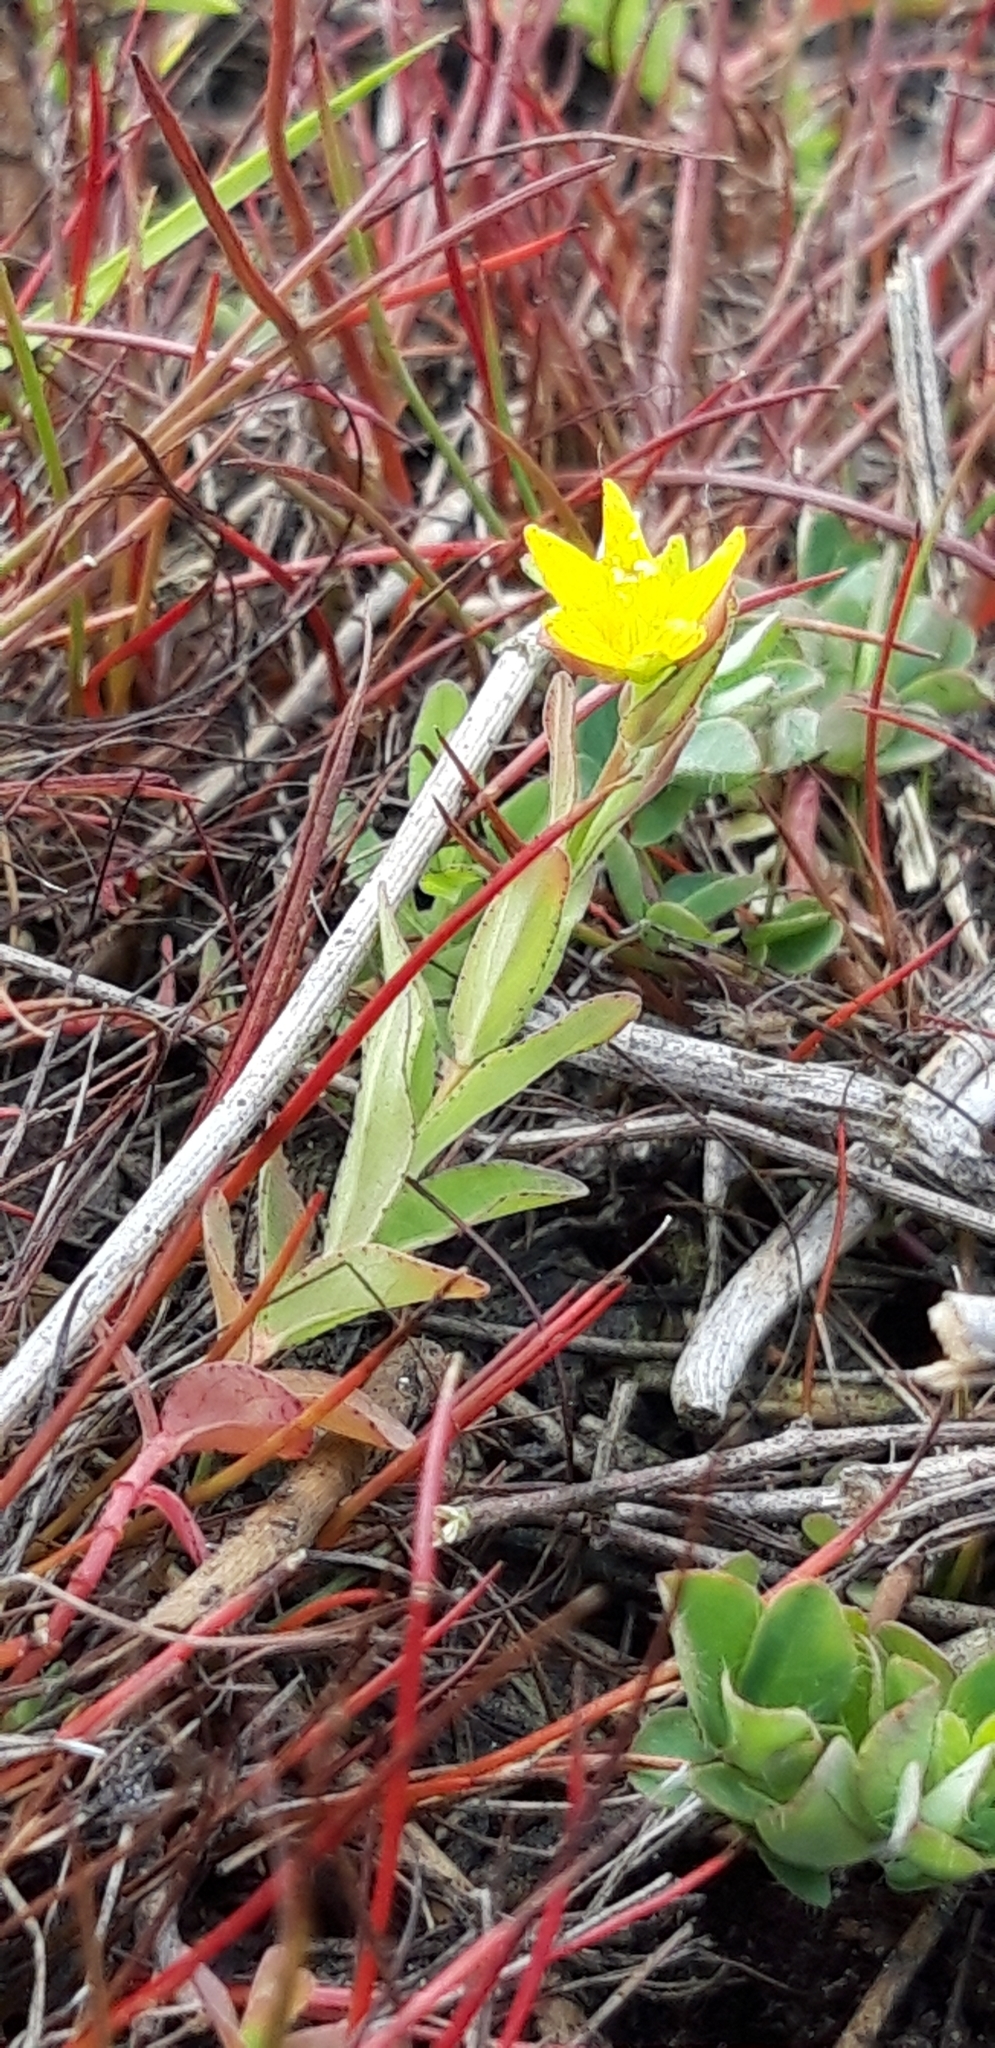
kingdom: Plantae
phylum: Tracheophyta
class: Magnoliopsida
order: Malpighiales
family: Hypericaceae
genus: Hypericum
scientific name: Hypericum humifusum
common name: Trailing st. john's-wort
